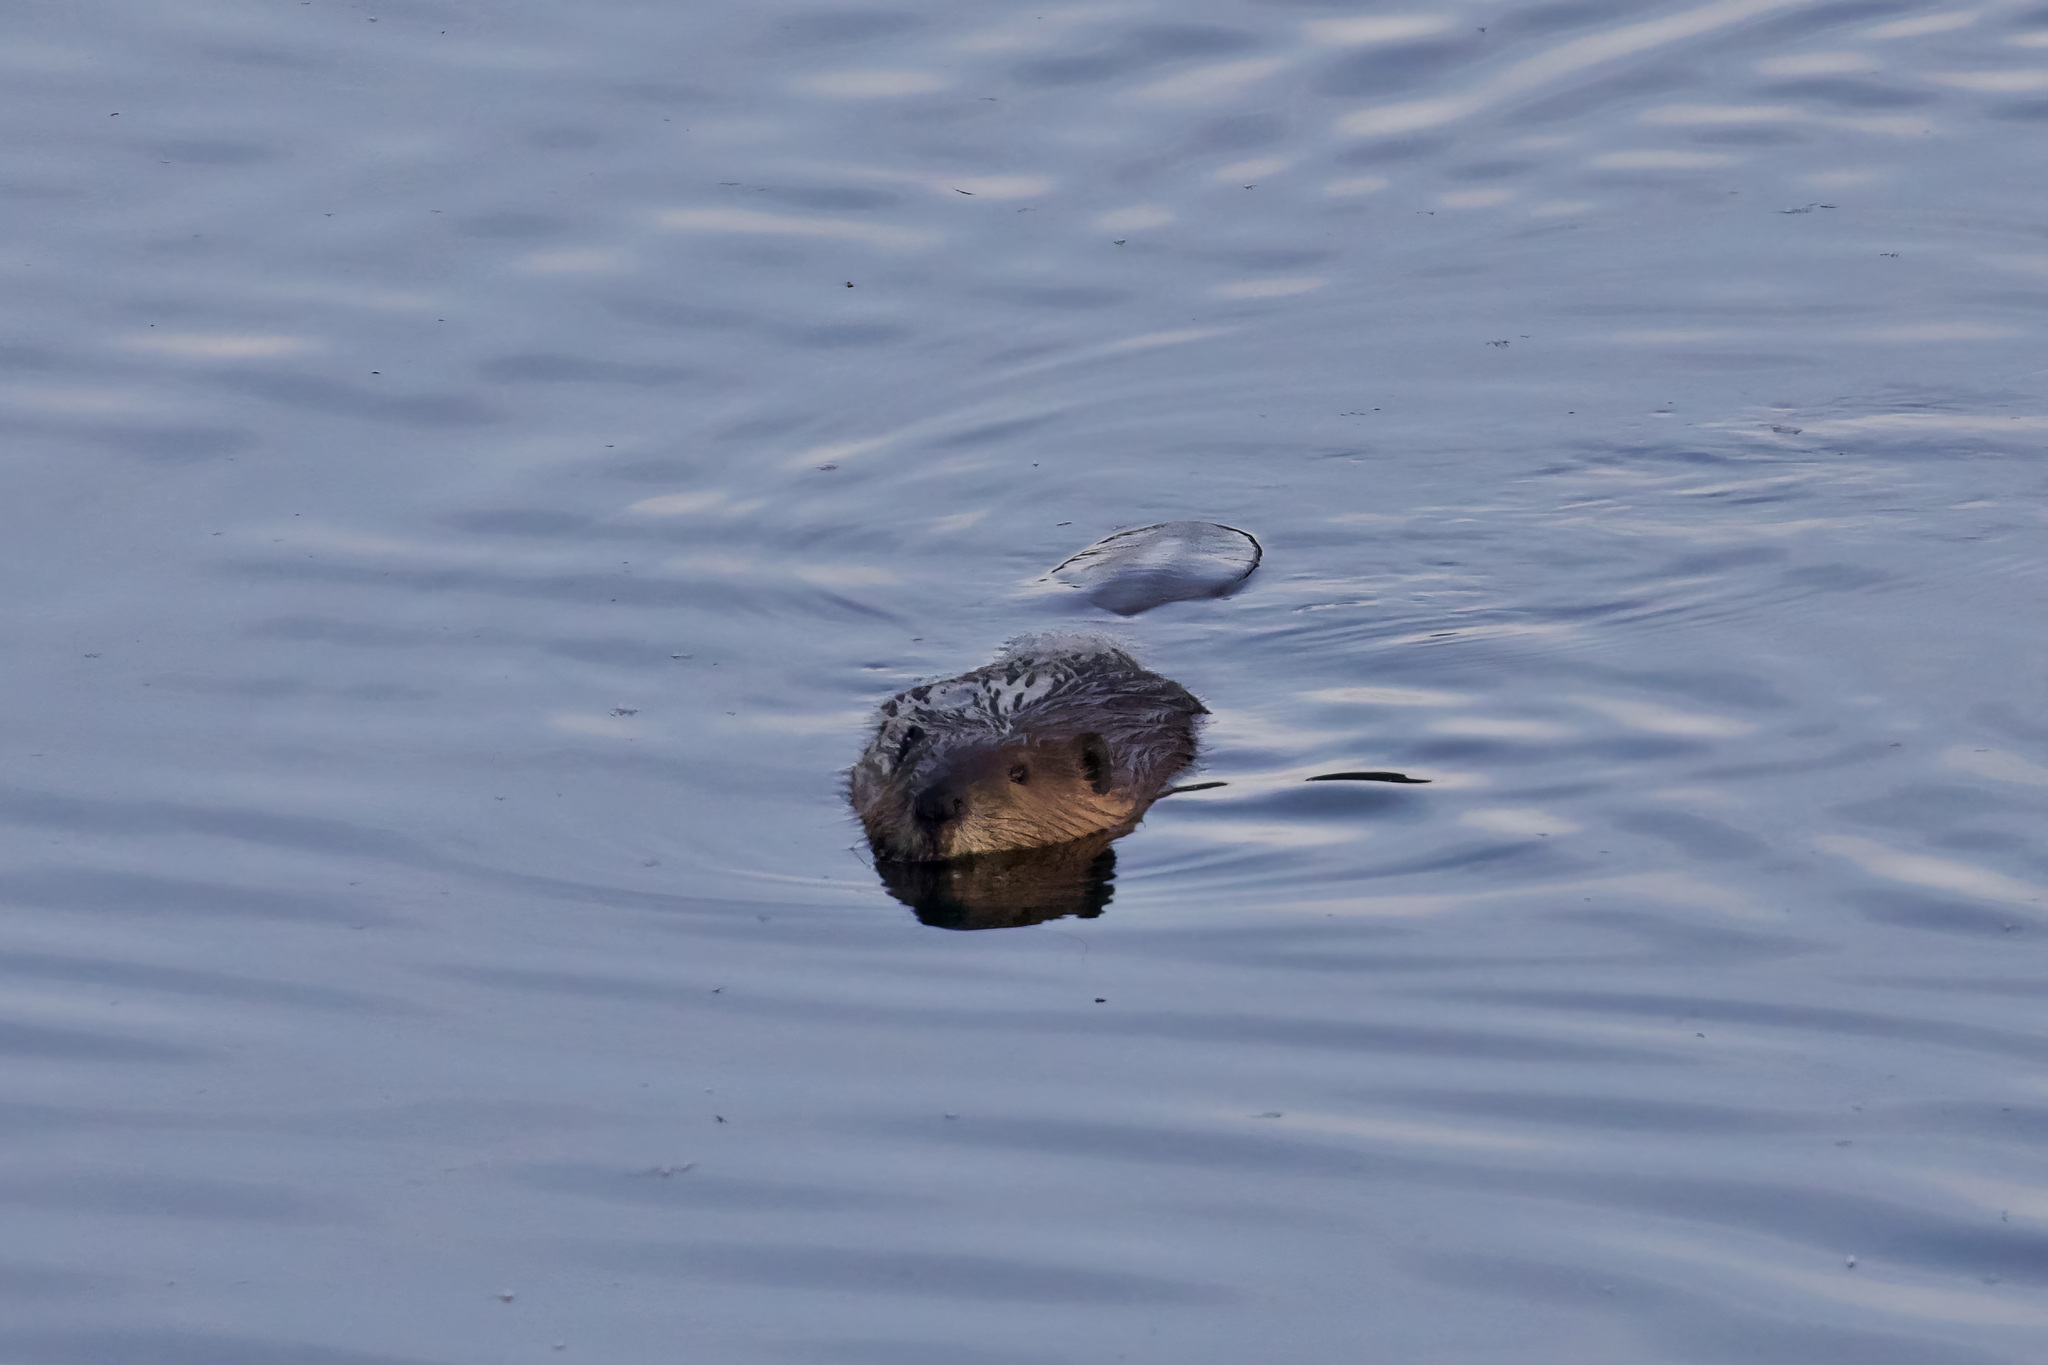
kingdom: Animalia
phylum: Chordata
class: Mammalia
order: Rodentia
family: Castoridae
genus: Castor
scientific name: Castor canadensis
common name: American beaver
